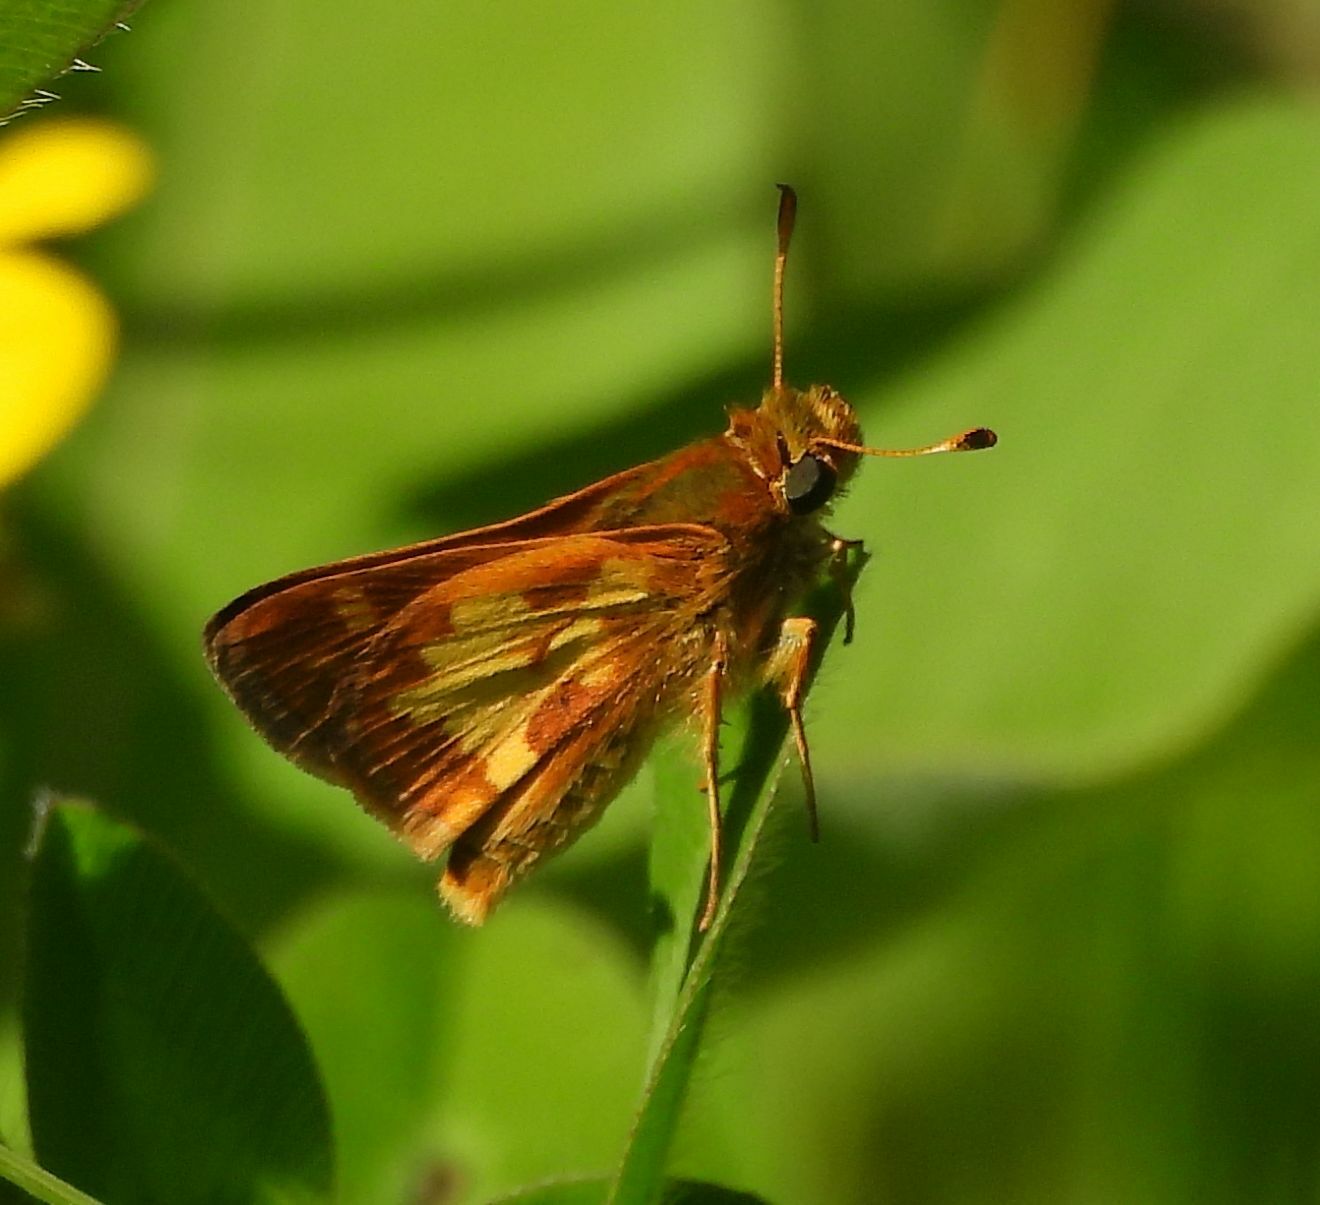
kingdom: Animalia
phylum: Arthropoda
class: Insecta
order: Lepidoptera
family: Hesperiidae
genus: Polites
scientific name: Polites coras
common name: Peck's skipper
